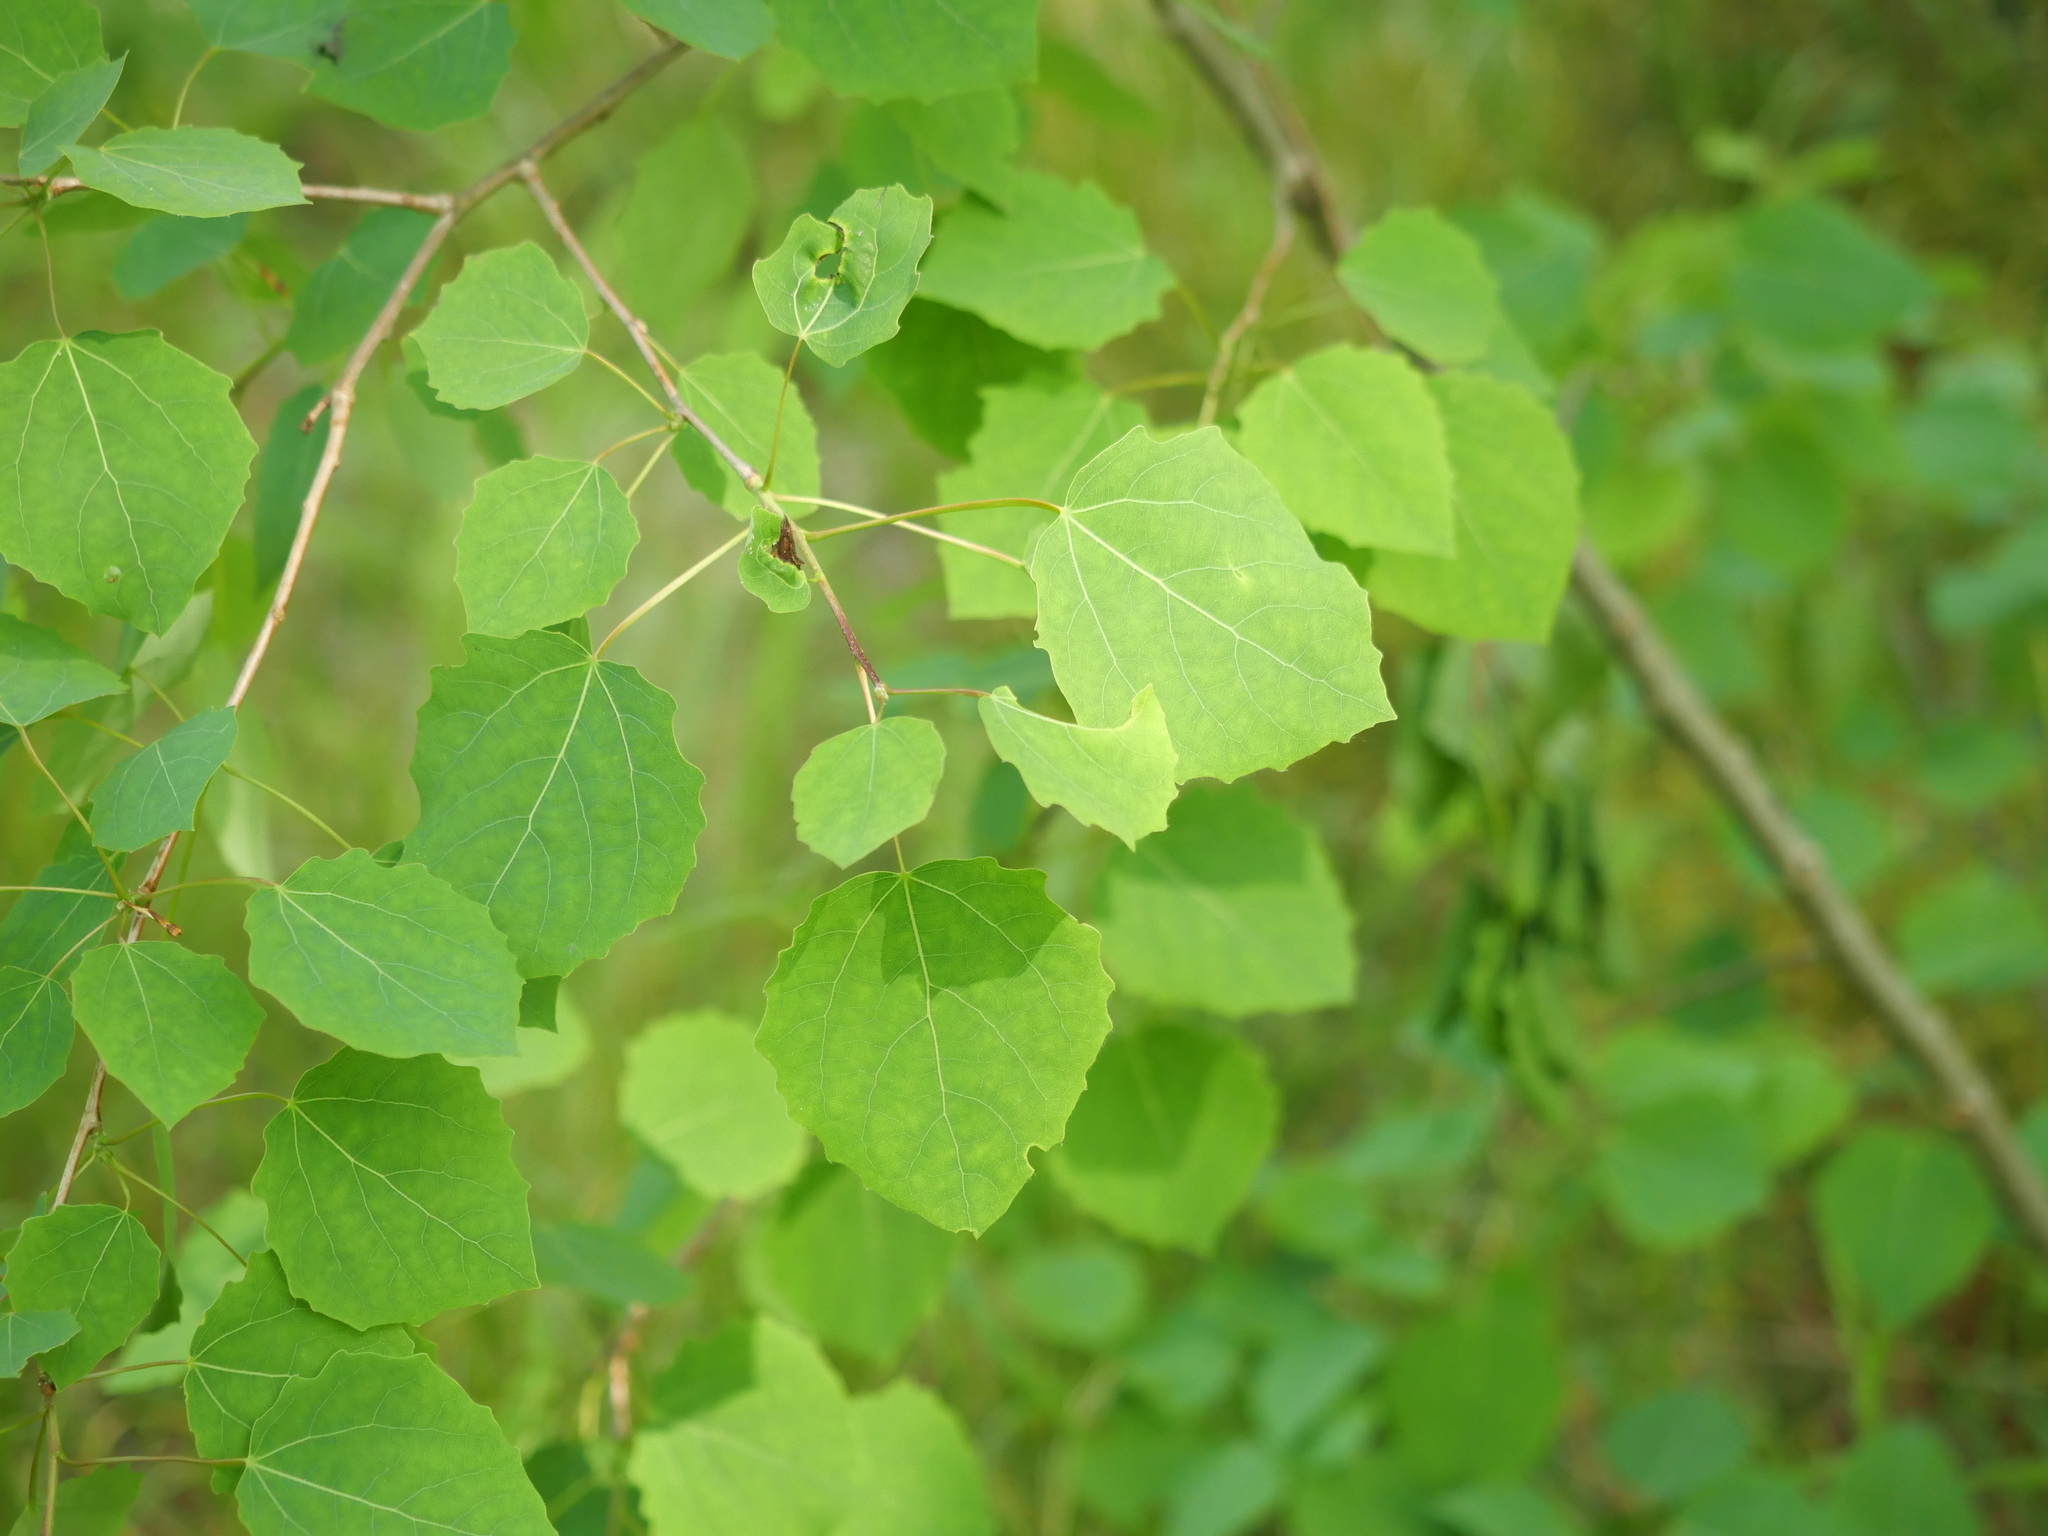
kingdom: Plantae
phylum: Tracheophyta
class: Magnoliopsida
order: Malpighiales
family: Salicaceae
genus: Populus
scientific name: Populus tremula
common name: European aspen
